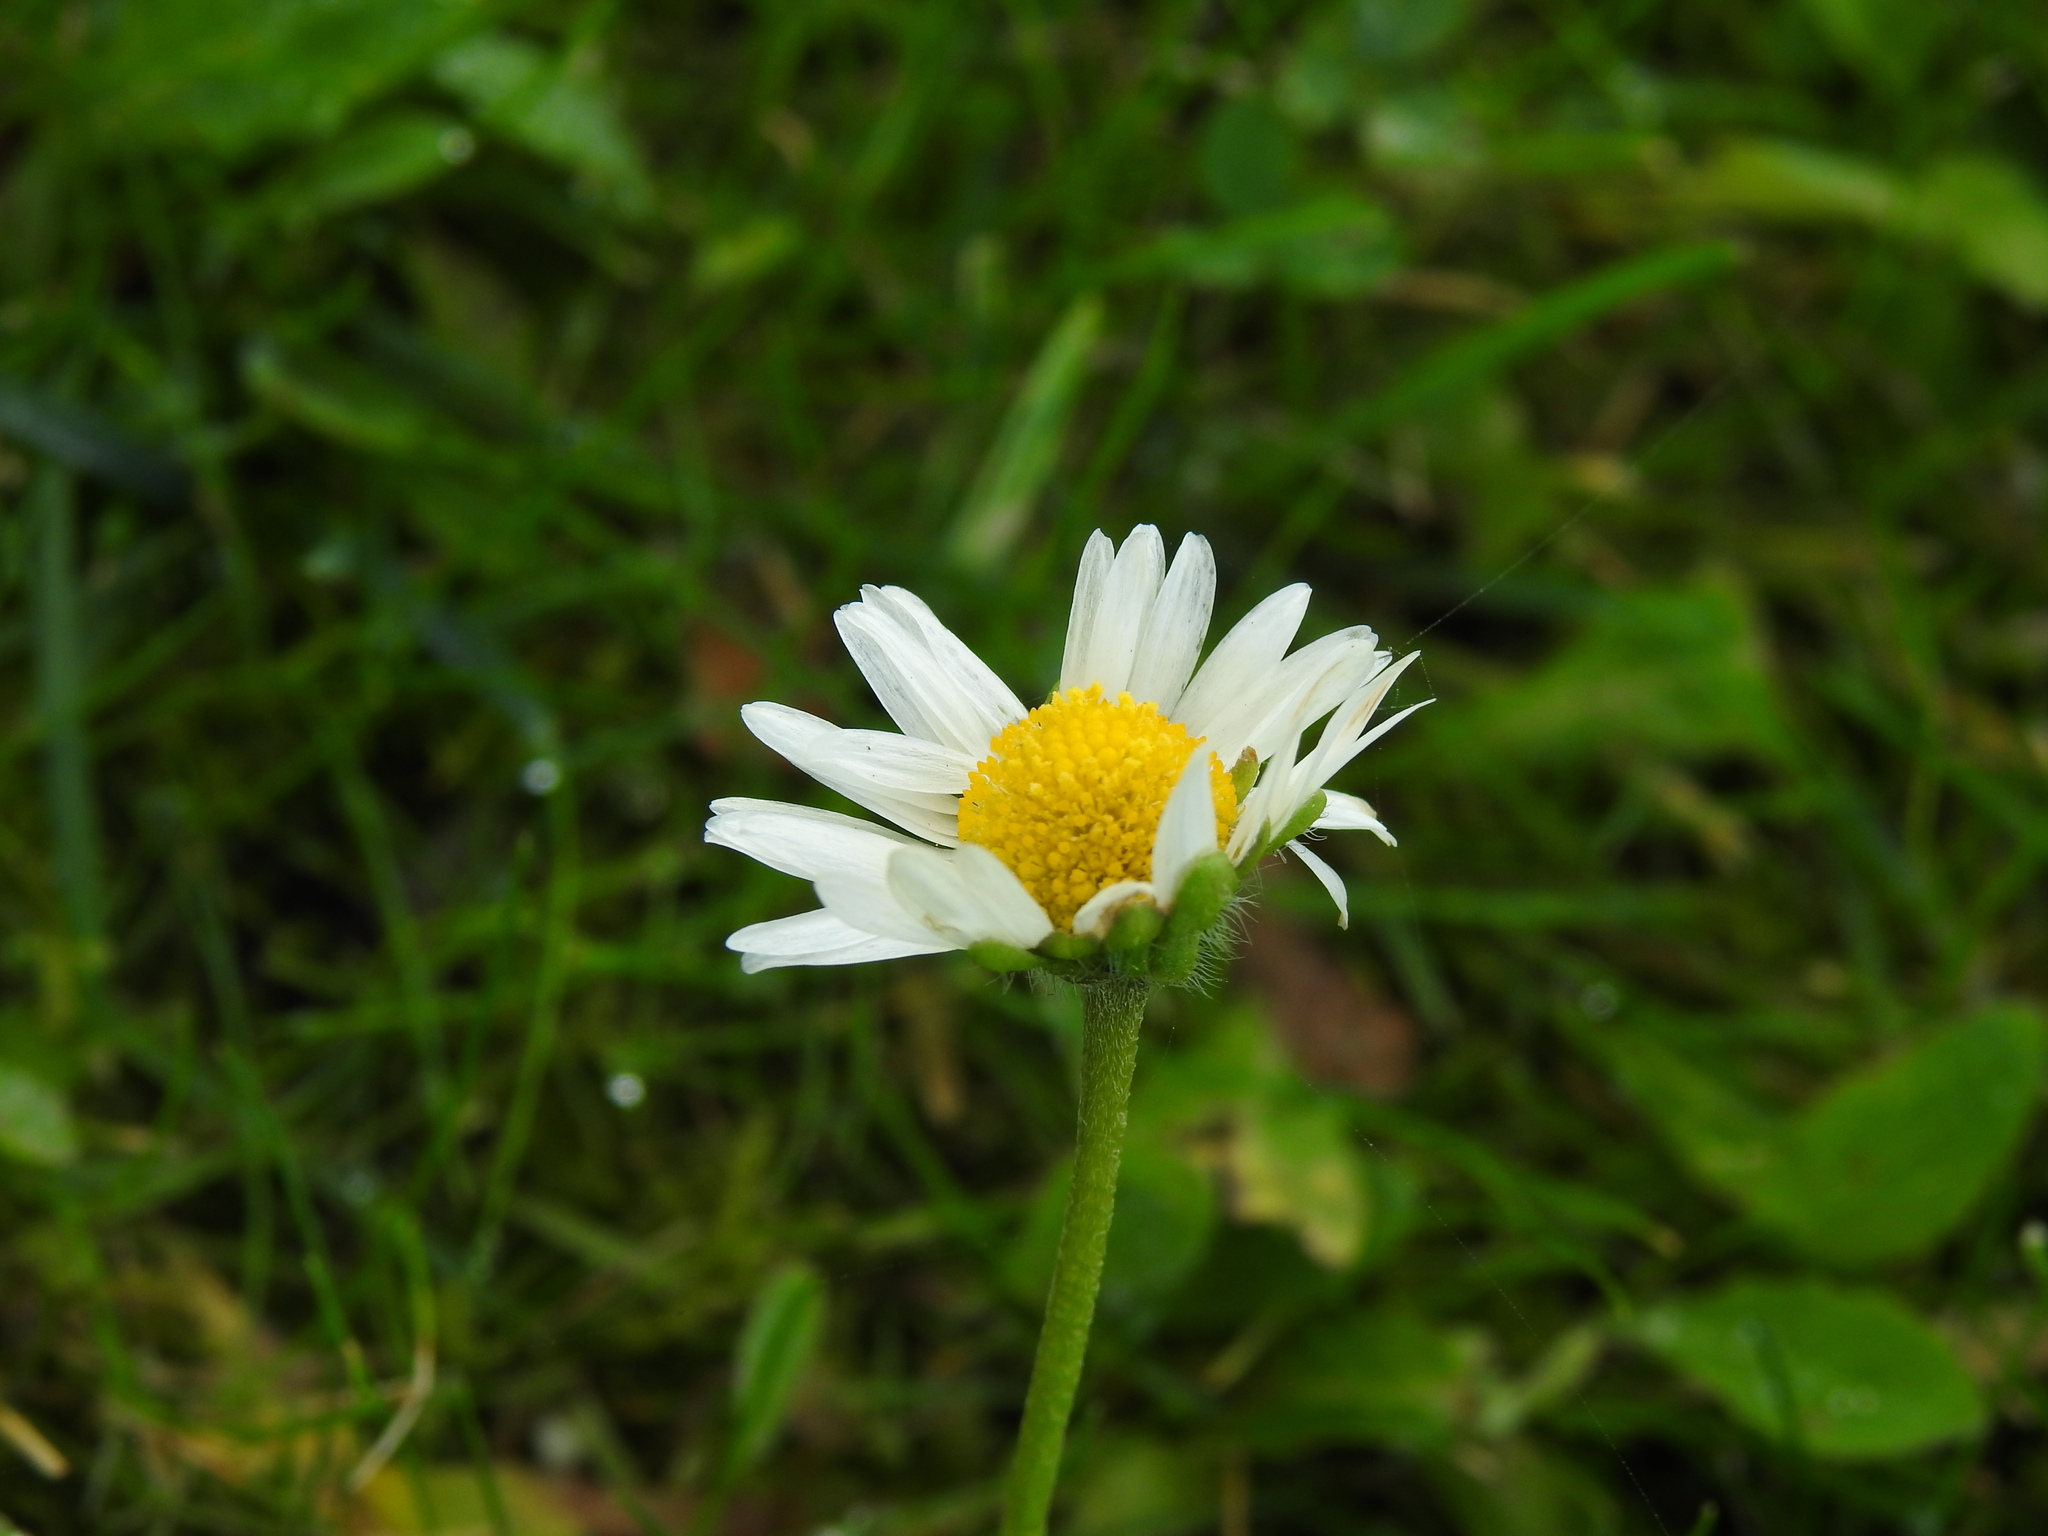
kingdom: Plantae
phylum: Tracheophyta
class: Magnoliopsida
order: Asterales
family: Asteraceae
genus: Bellis
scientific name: Bellis perennis
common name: Lawndaisy
